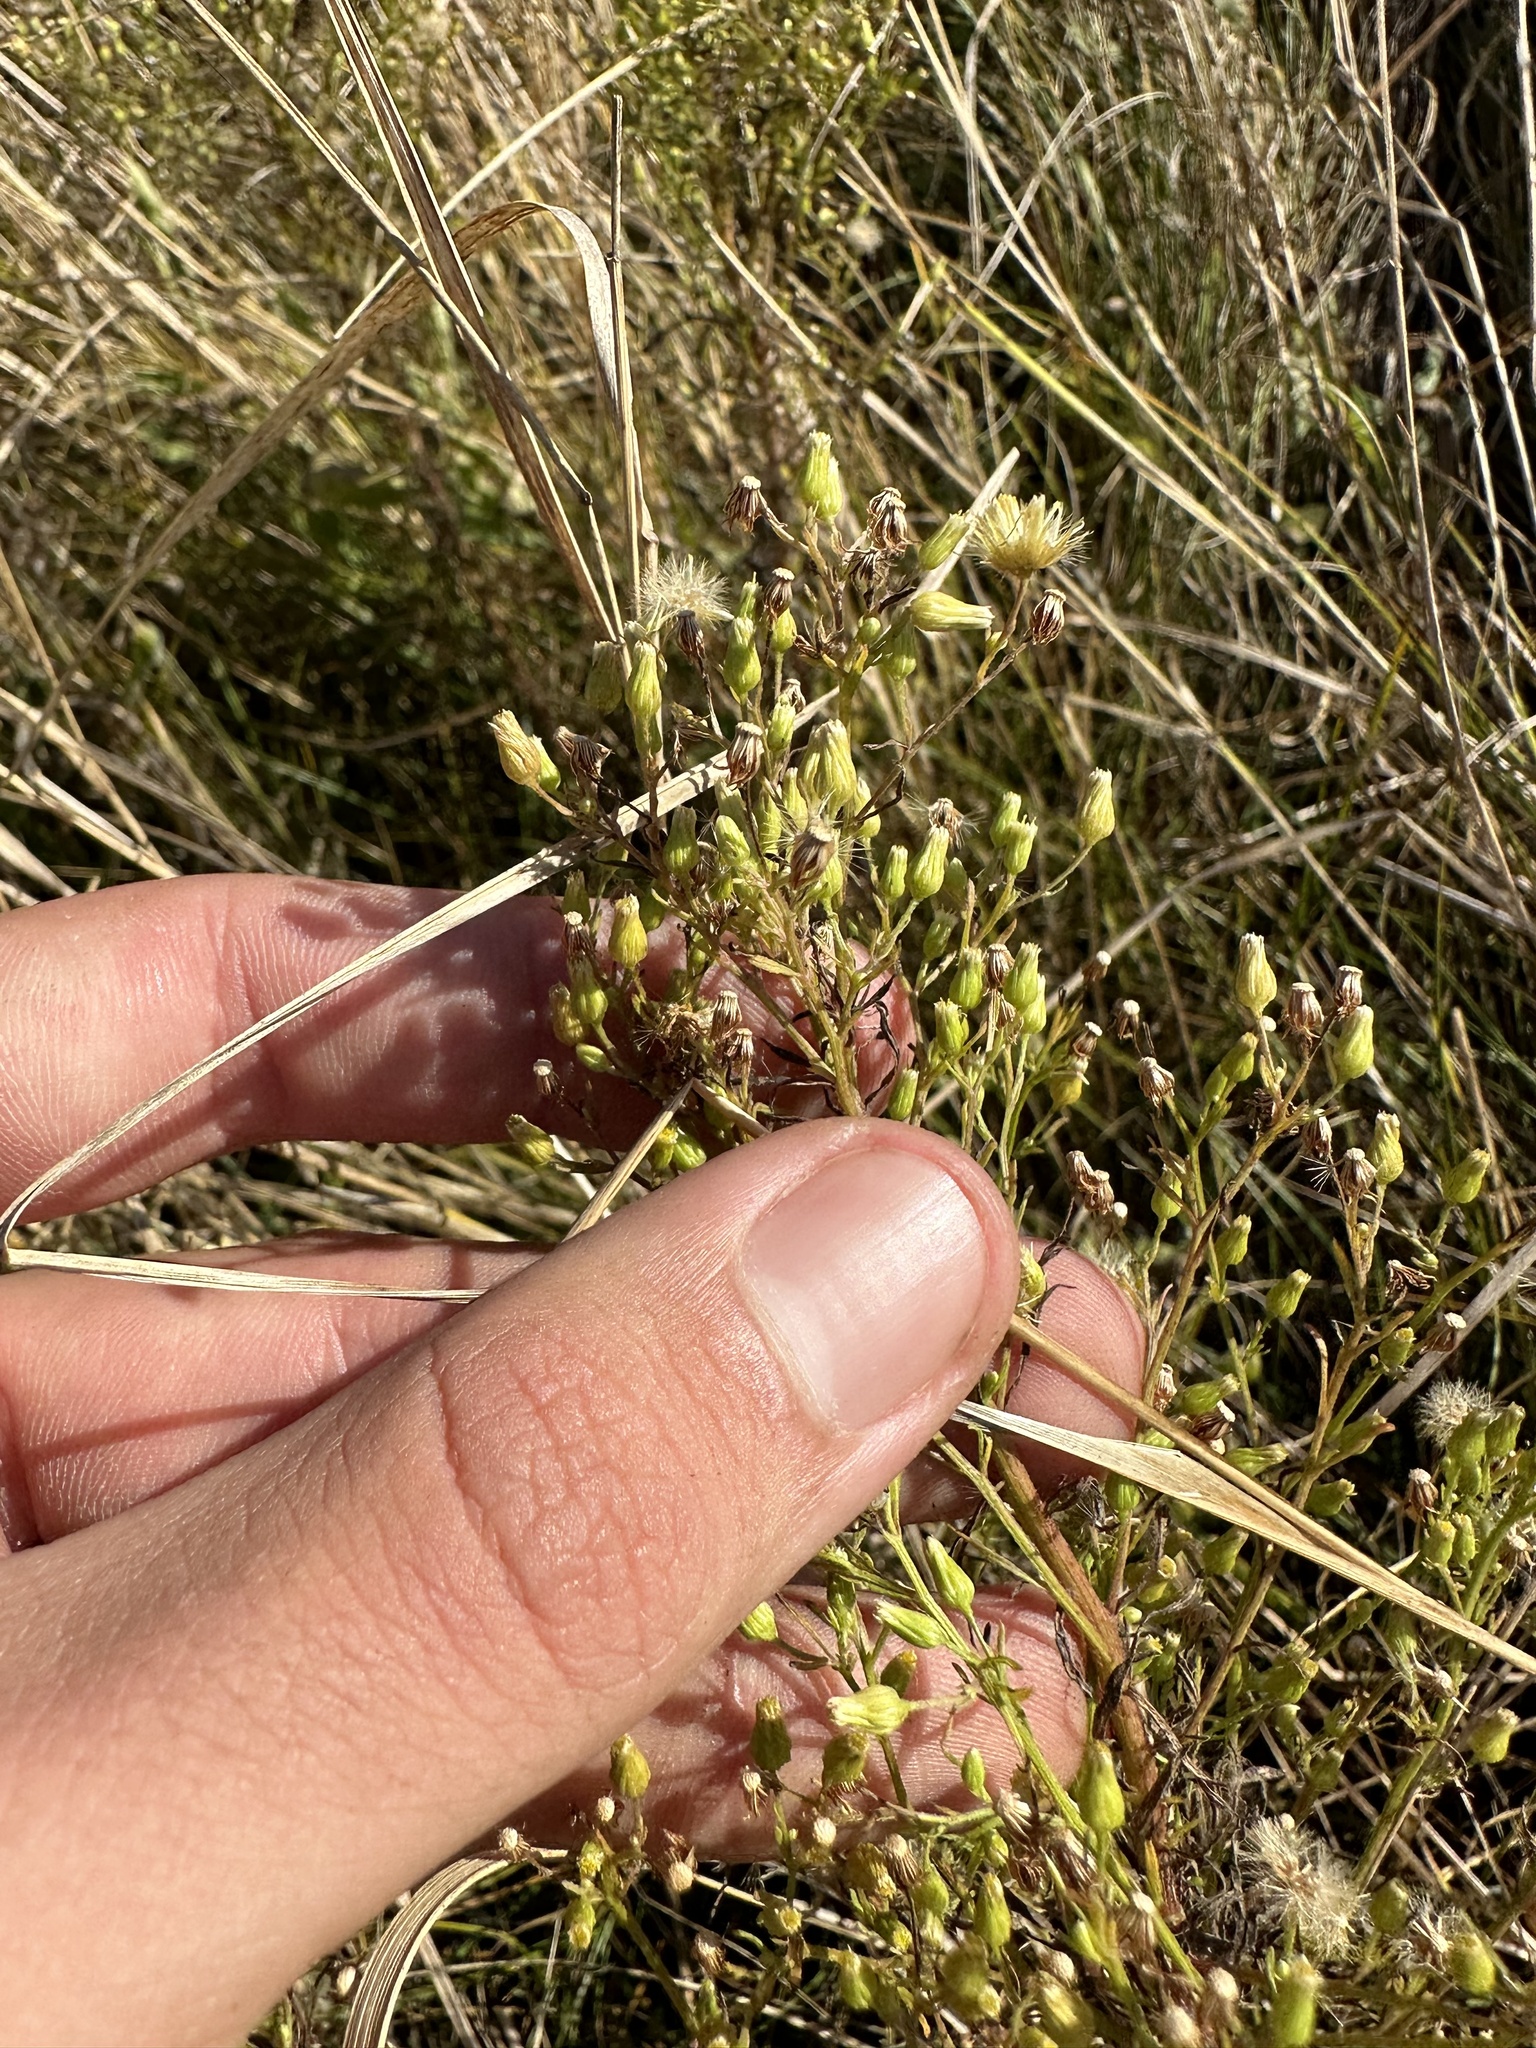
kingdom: Plantae
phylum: Tracheophyta
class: Magnoliopsida
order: Asterales
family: Asteraceae
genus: Erigeron
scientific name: Erigeron canadensis
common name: Canadian fleabane
